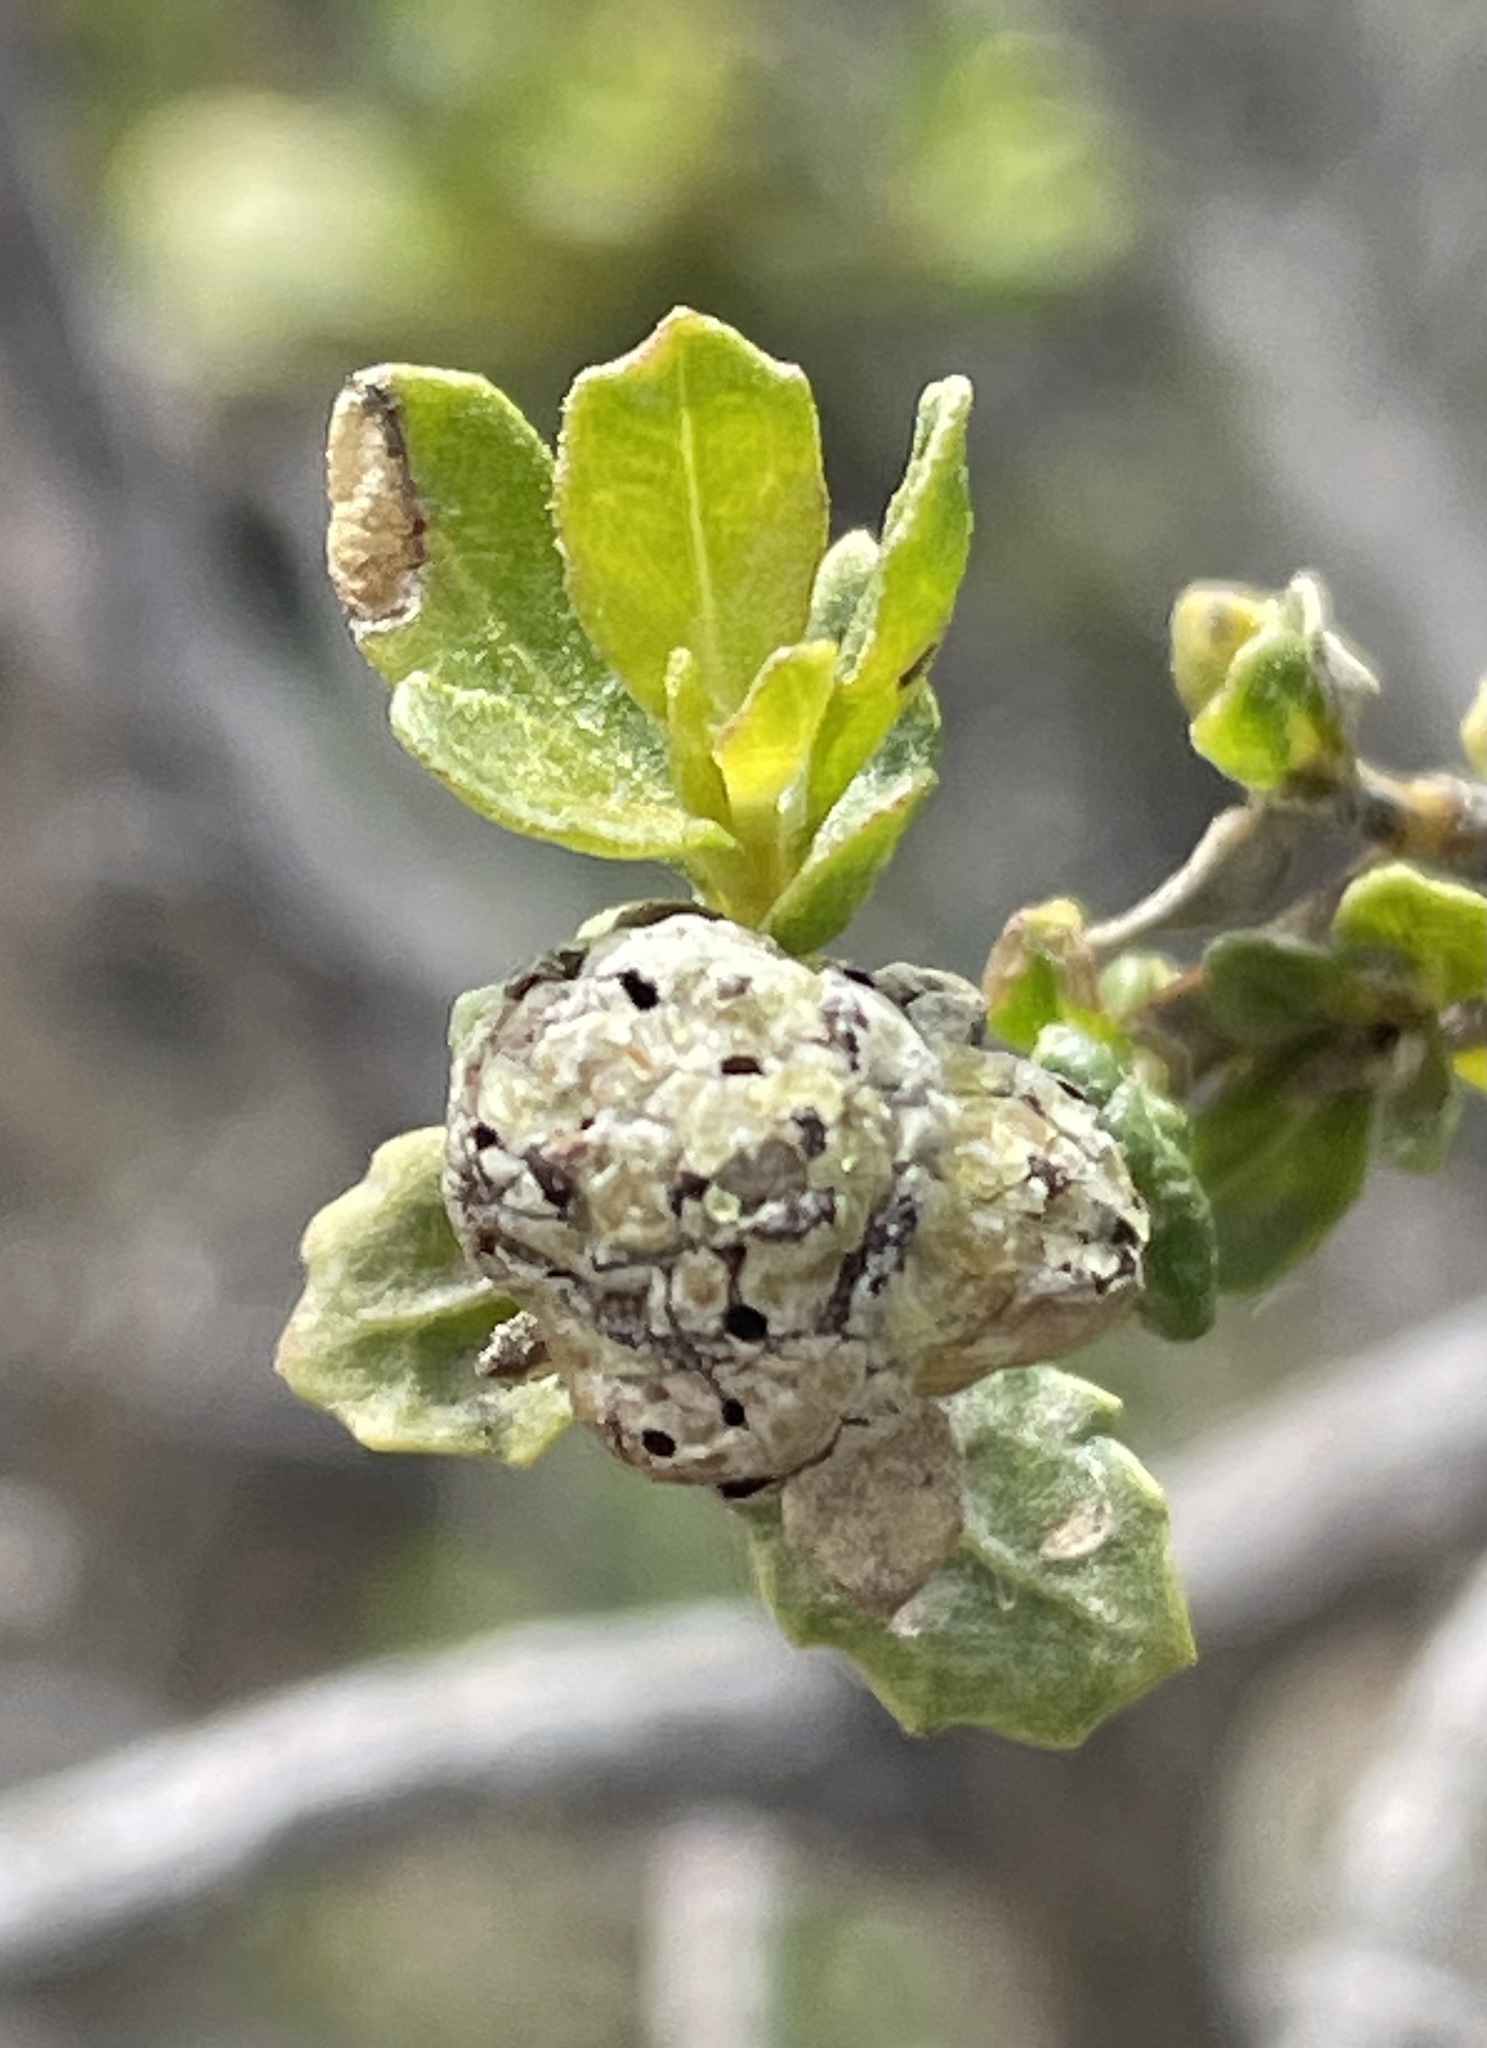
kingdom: Animalia
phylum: Arthropoda
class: Insecta
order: Diptera
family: Cecidomyiidae
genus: Rhopalomyia
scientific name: Rhopalomyia californica
